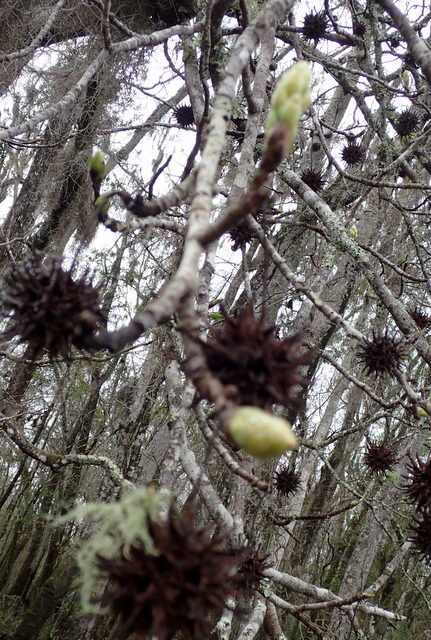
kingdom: Plantae
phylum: Tracheophyta
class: Magnoliopsida
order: Saxifragales
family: Altingiaceae
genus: Liquidambar
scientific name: Liquidambar styraciflua
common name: Sweet gum
